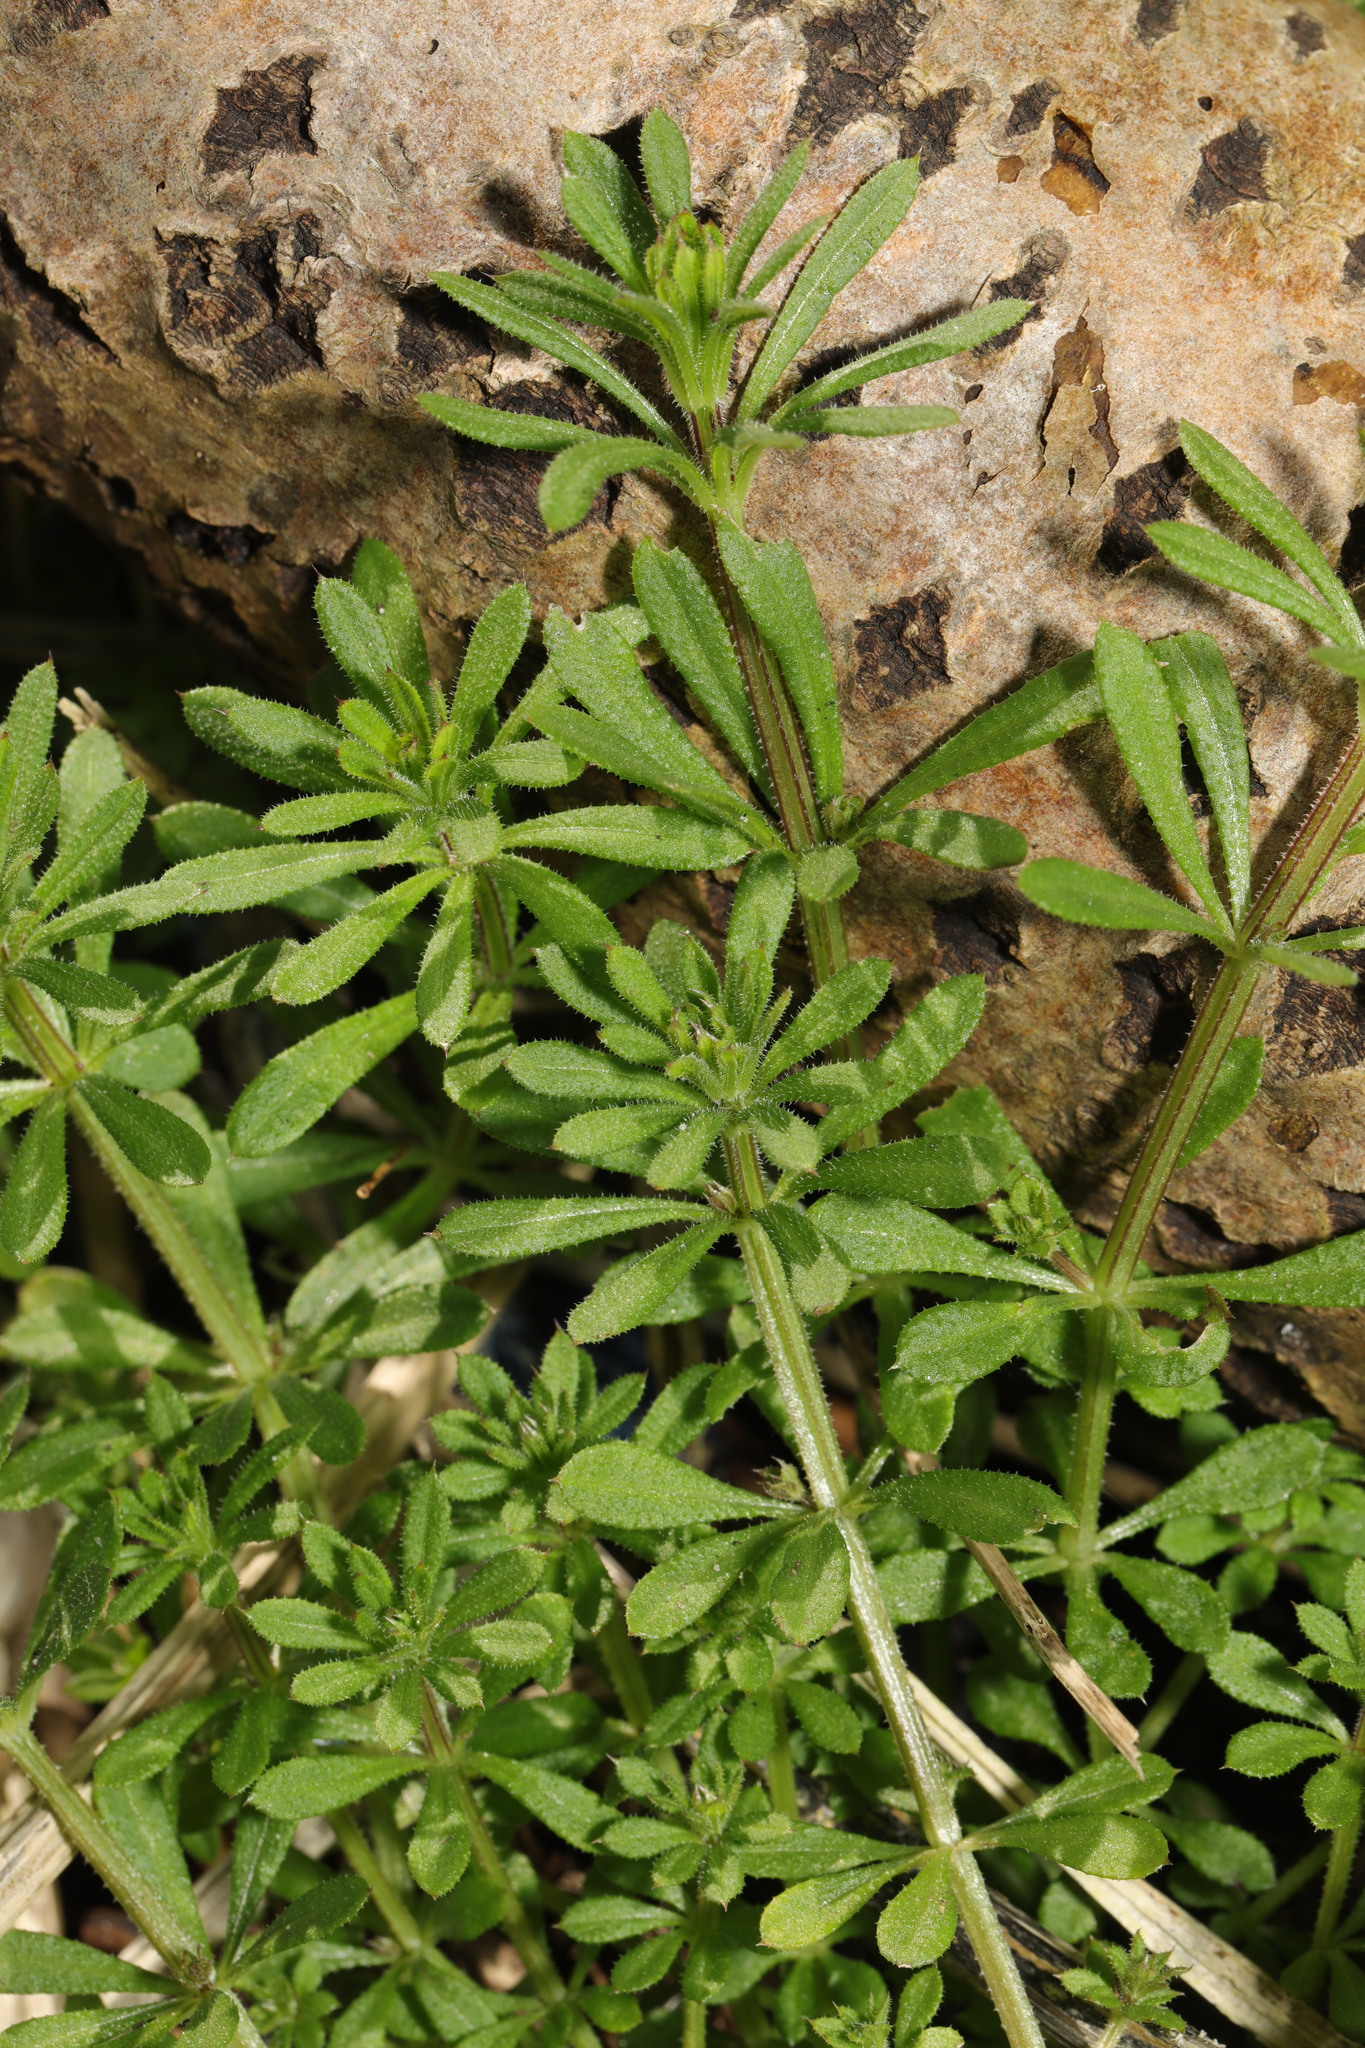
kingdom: Plantae
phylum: Tracheophyta
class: Magnoliopsida
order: Gentianales
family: Rubiaceae
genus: Galium
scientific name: Galium aparine
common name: Cleavers
